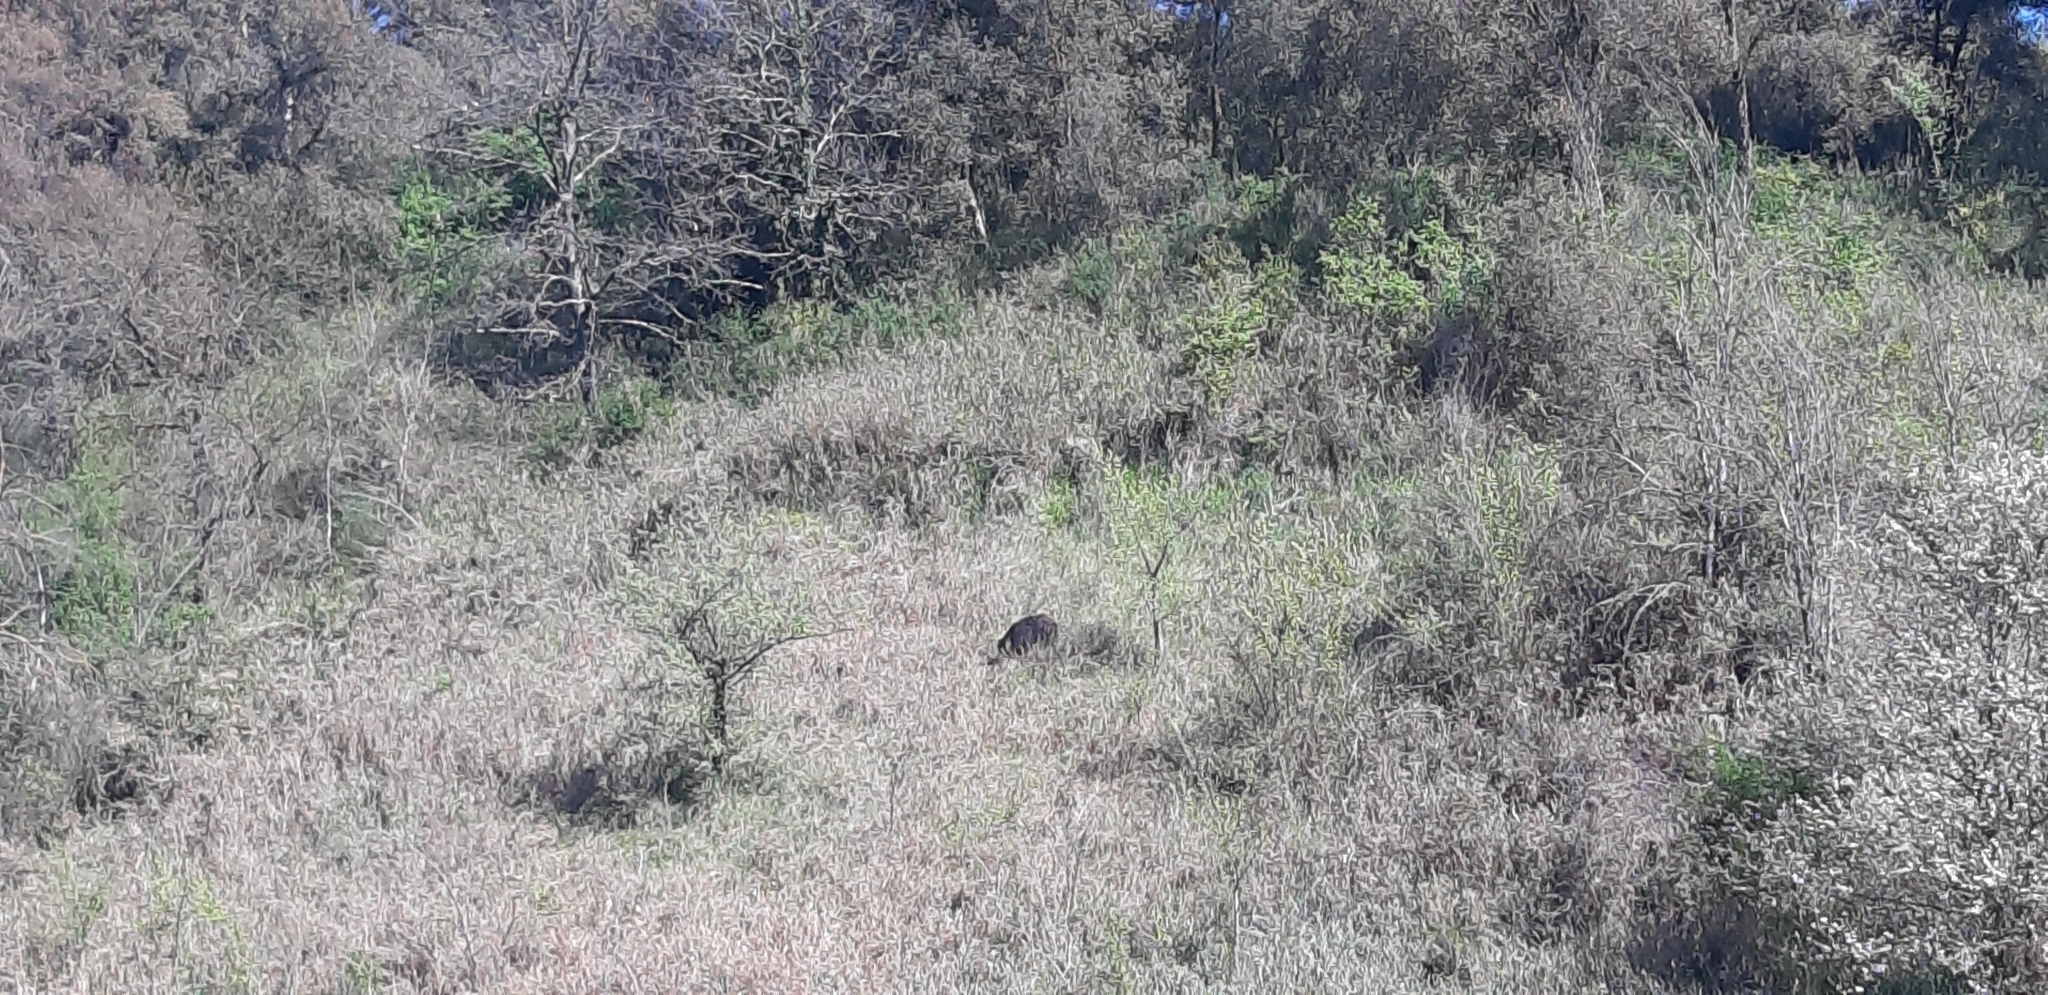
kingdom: Animalia
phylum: Chordata
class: Mammalia
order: Artiodactyla
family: Suidae
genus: Sus
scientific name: Sus scrofa
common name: Wild boar
